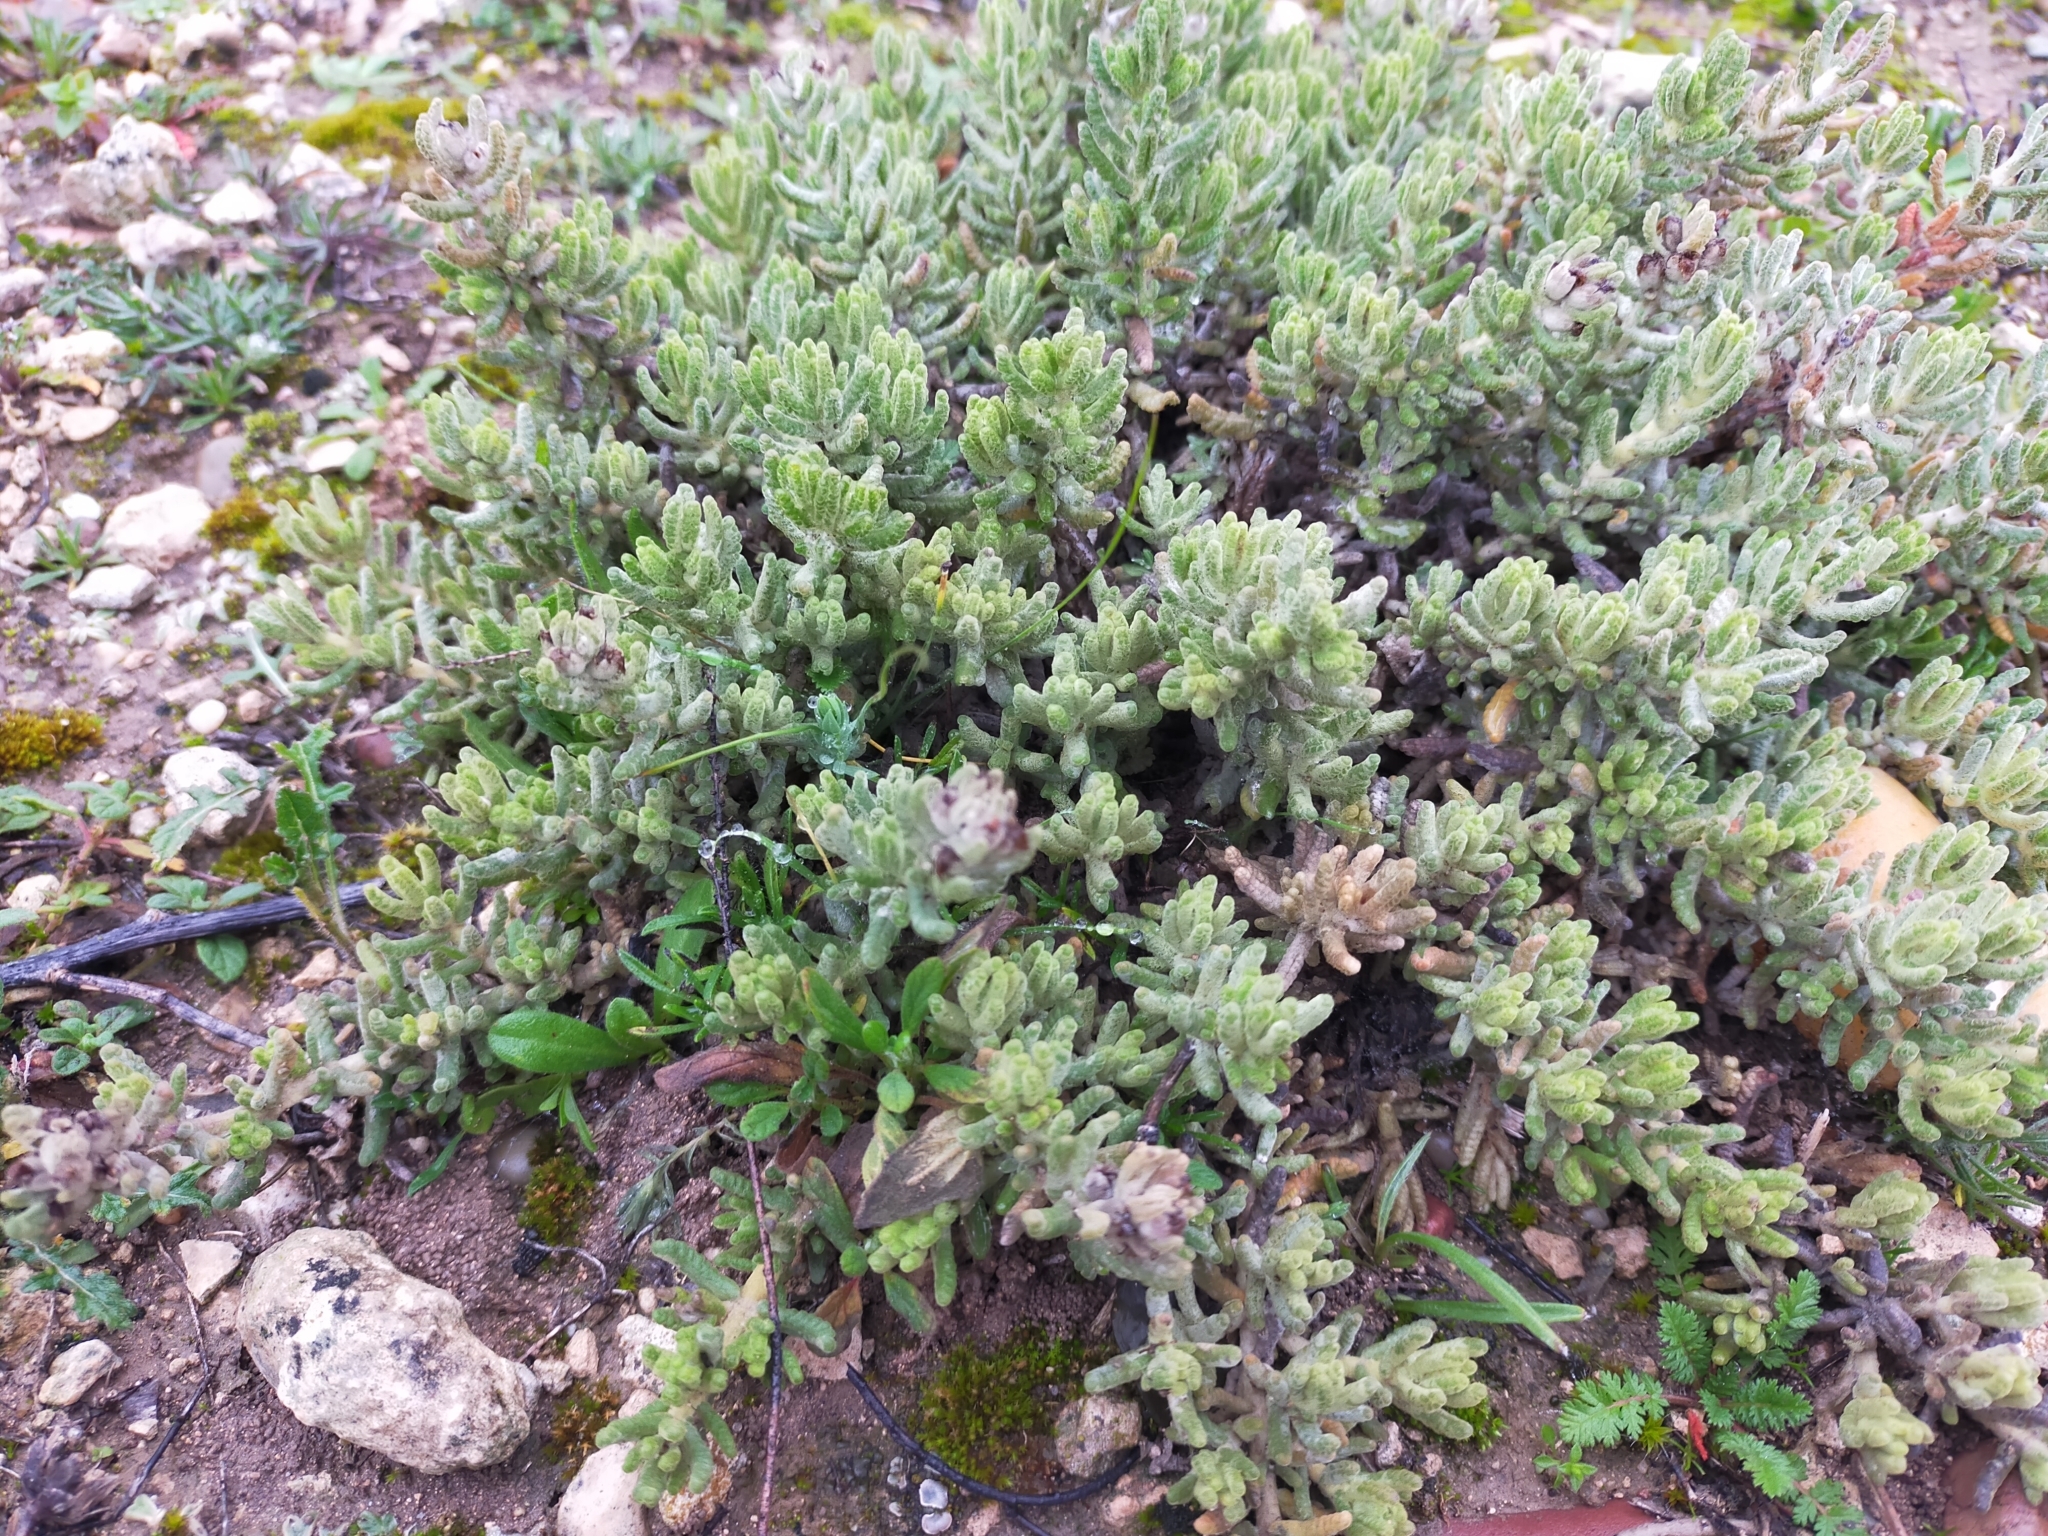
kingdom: Plantae
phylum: Tracheophyta
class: Magnoliopsida
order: Lamiales
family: Lamiaceae
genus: Teucrium
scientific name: Teucrium gnaphalodes
